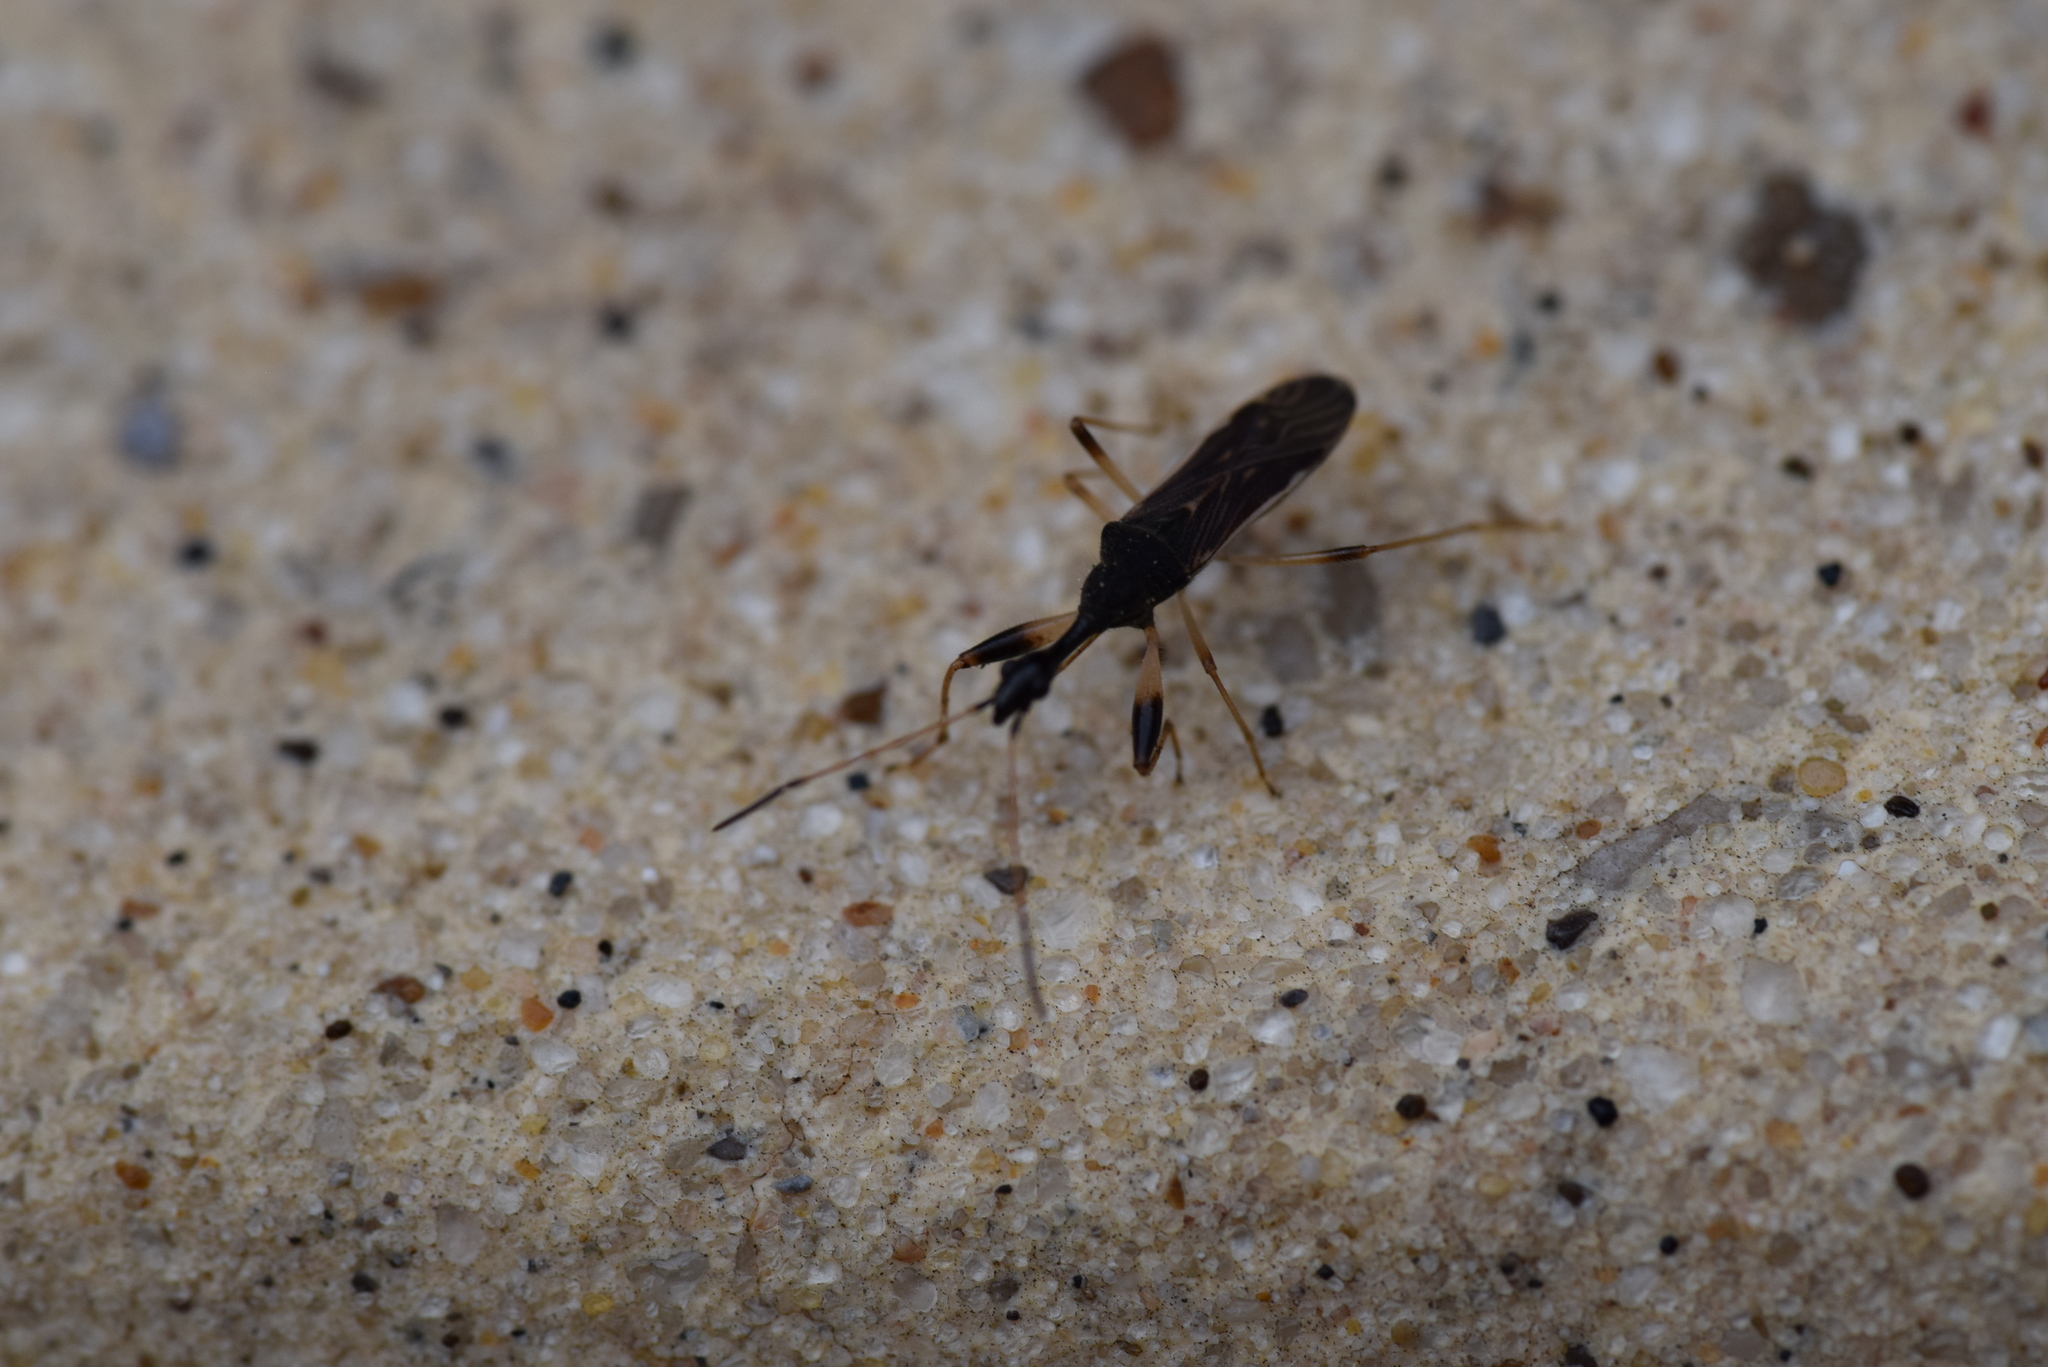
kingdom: Animalia
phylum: Arthropoda
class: Insecta
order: Hemiptera
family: Rhyparochromidae
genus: Myodocha
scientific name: Myodocha serripes
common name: Long-necked seed bug
